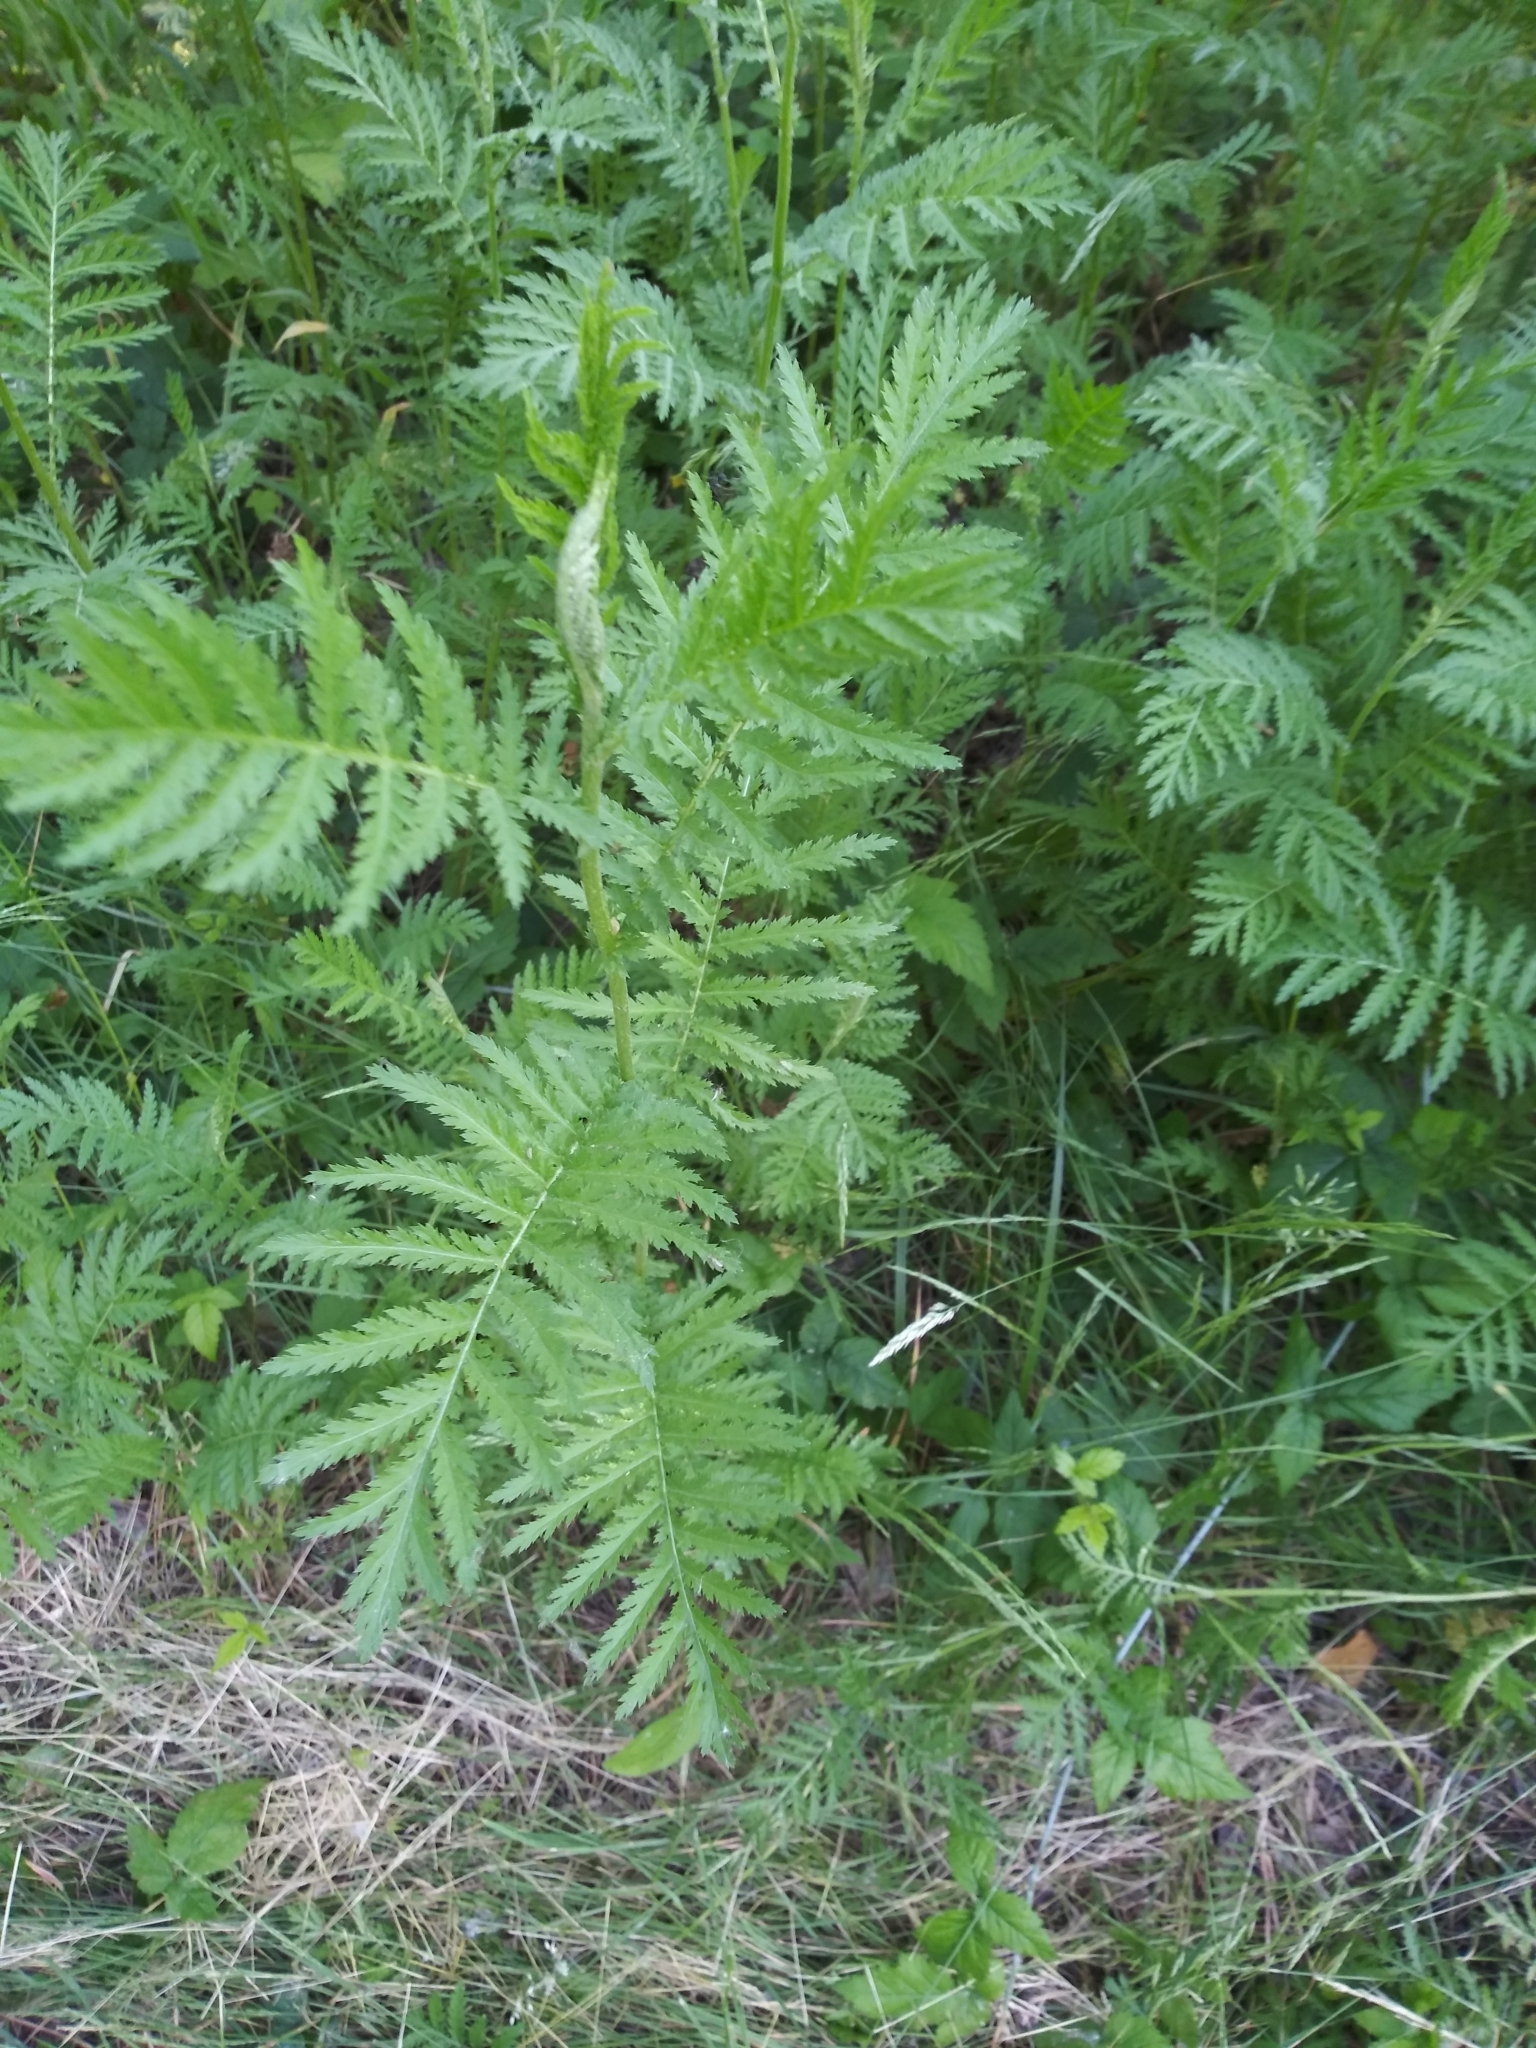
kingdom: Plantae
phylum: Tracheophyta
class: Magnoliopsida
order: Asterales
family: Asteraceae
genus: Tanacetum
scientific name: Tanacetum vulgare
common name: Common tansy
